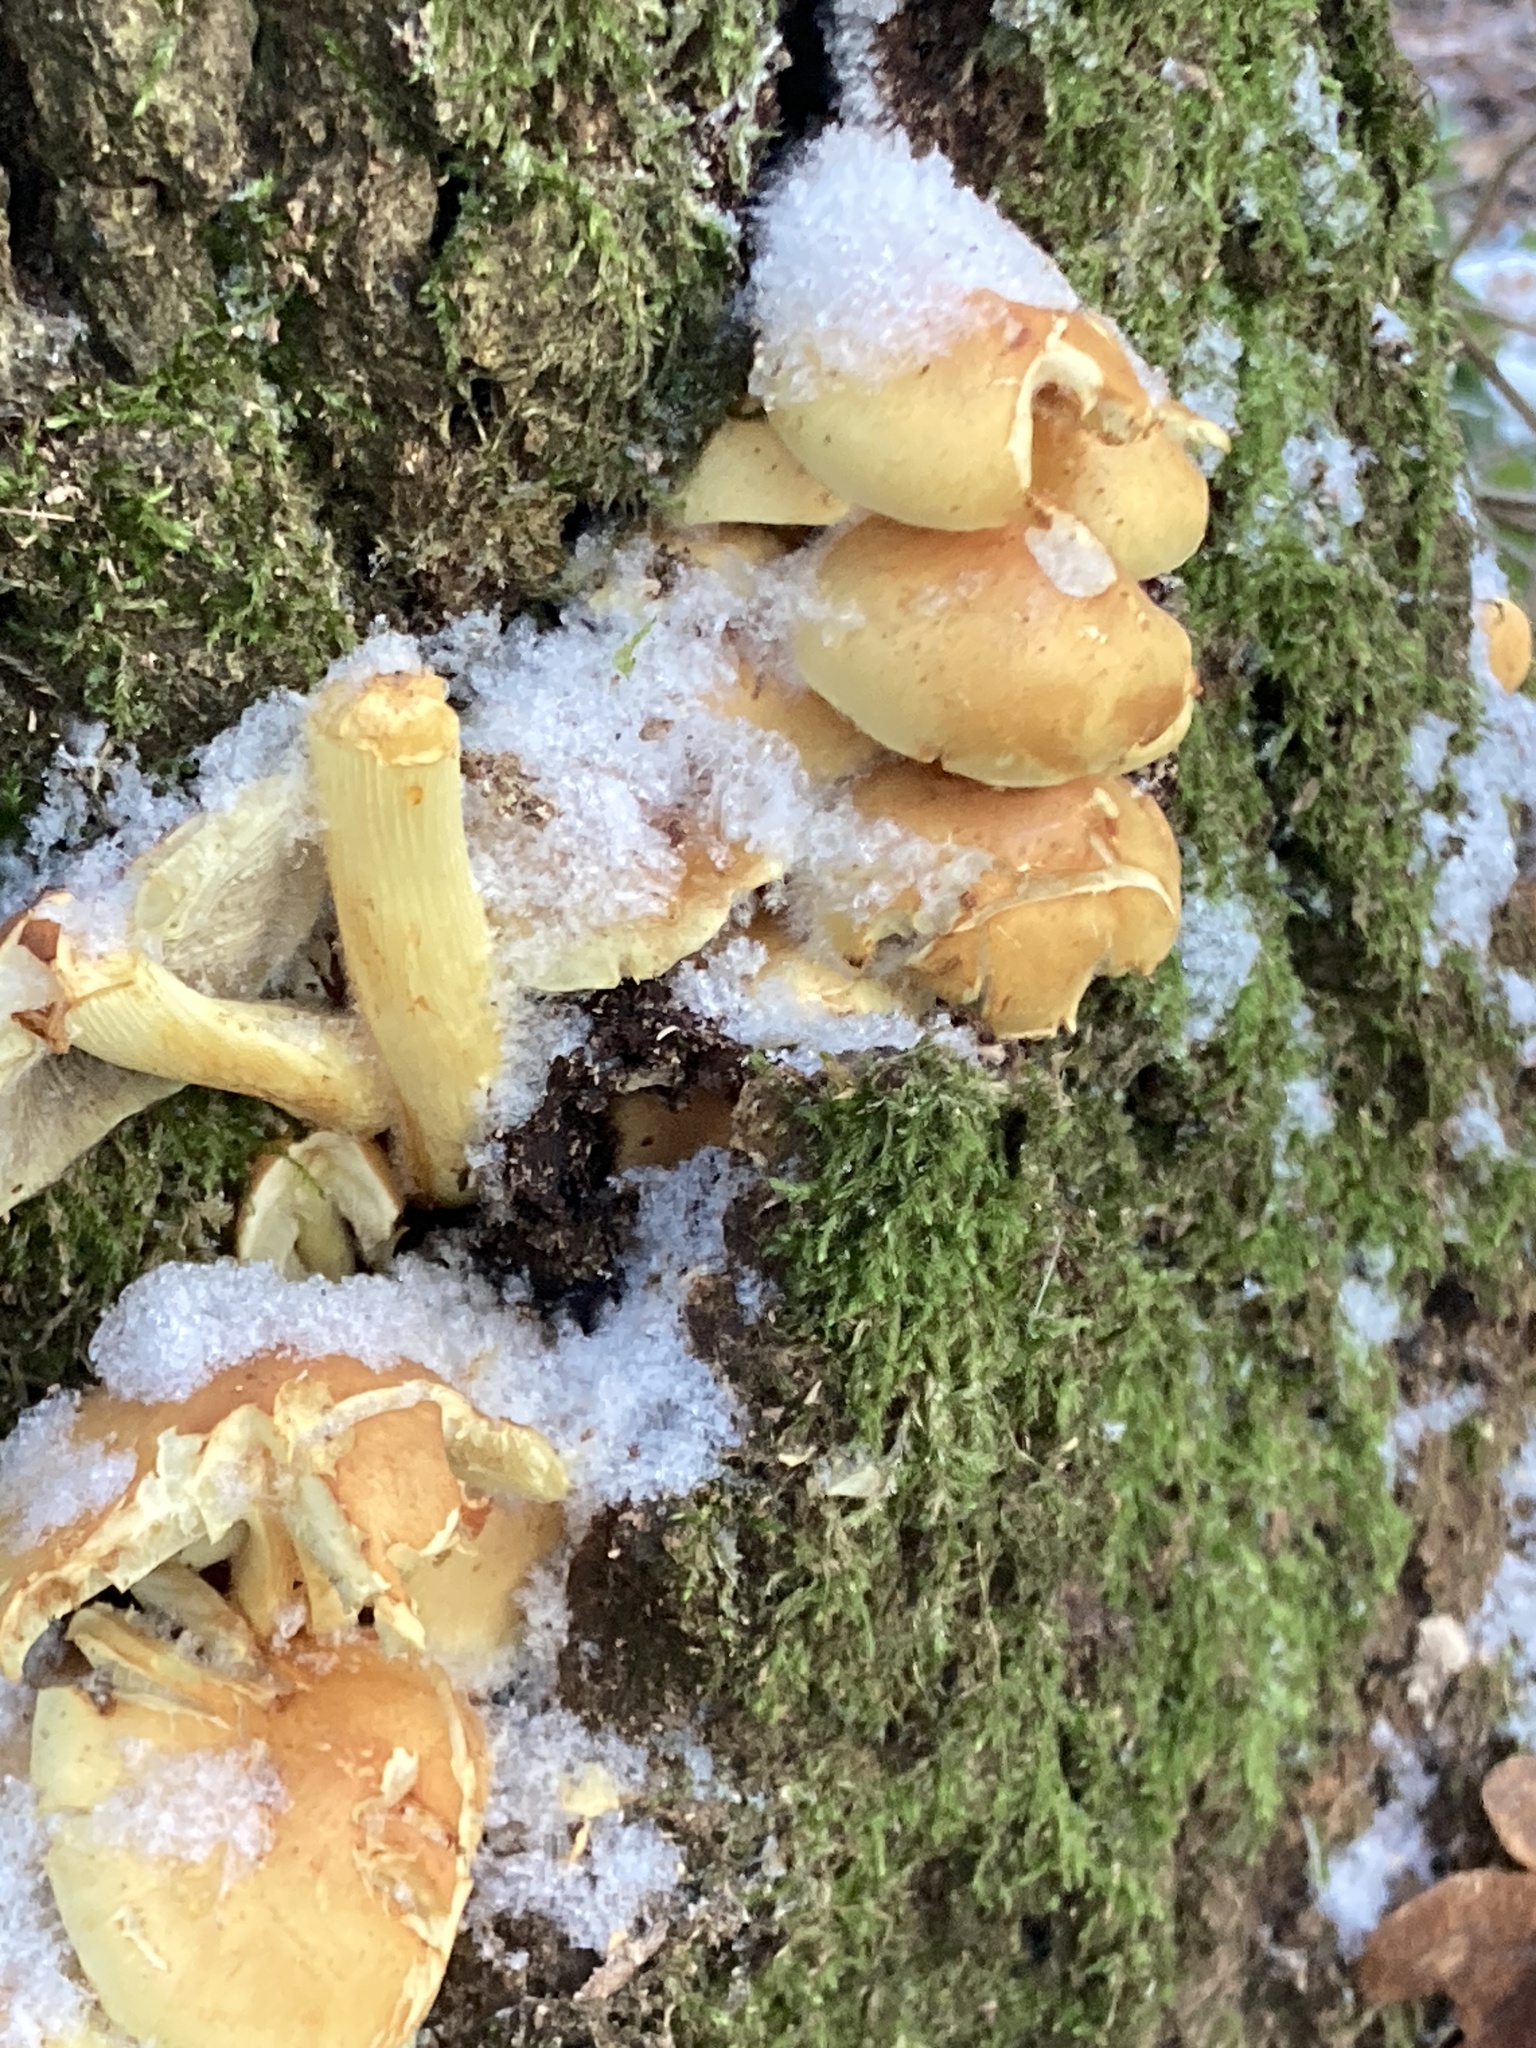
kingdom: Fungi
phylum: Basidiomycota
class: Agaricomycetes
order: Agaricales
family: Strophariaceae
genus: Hypholoma
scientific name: Hypholoma fasciculare
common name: Sulphur tuft
